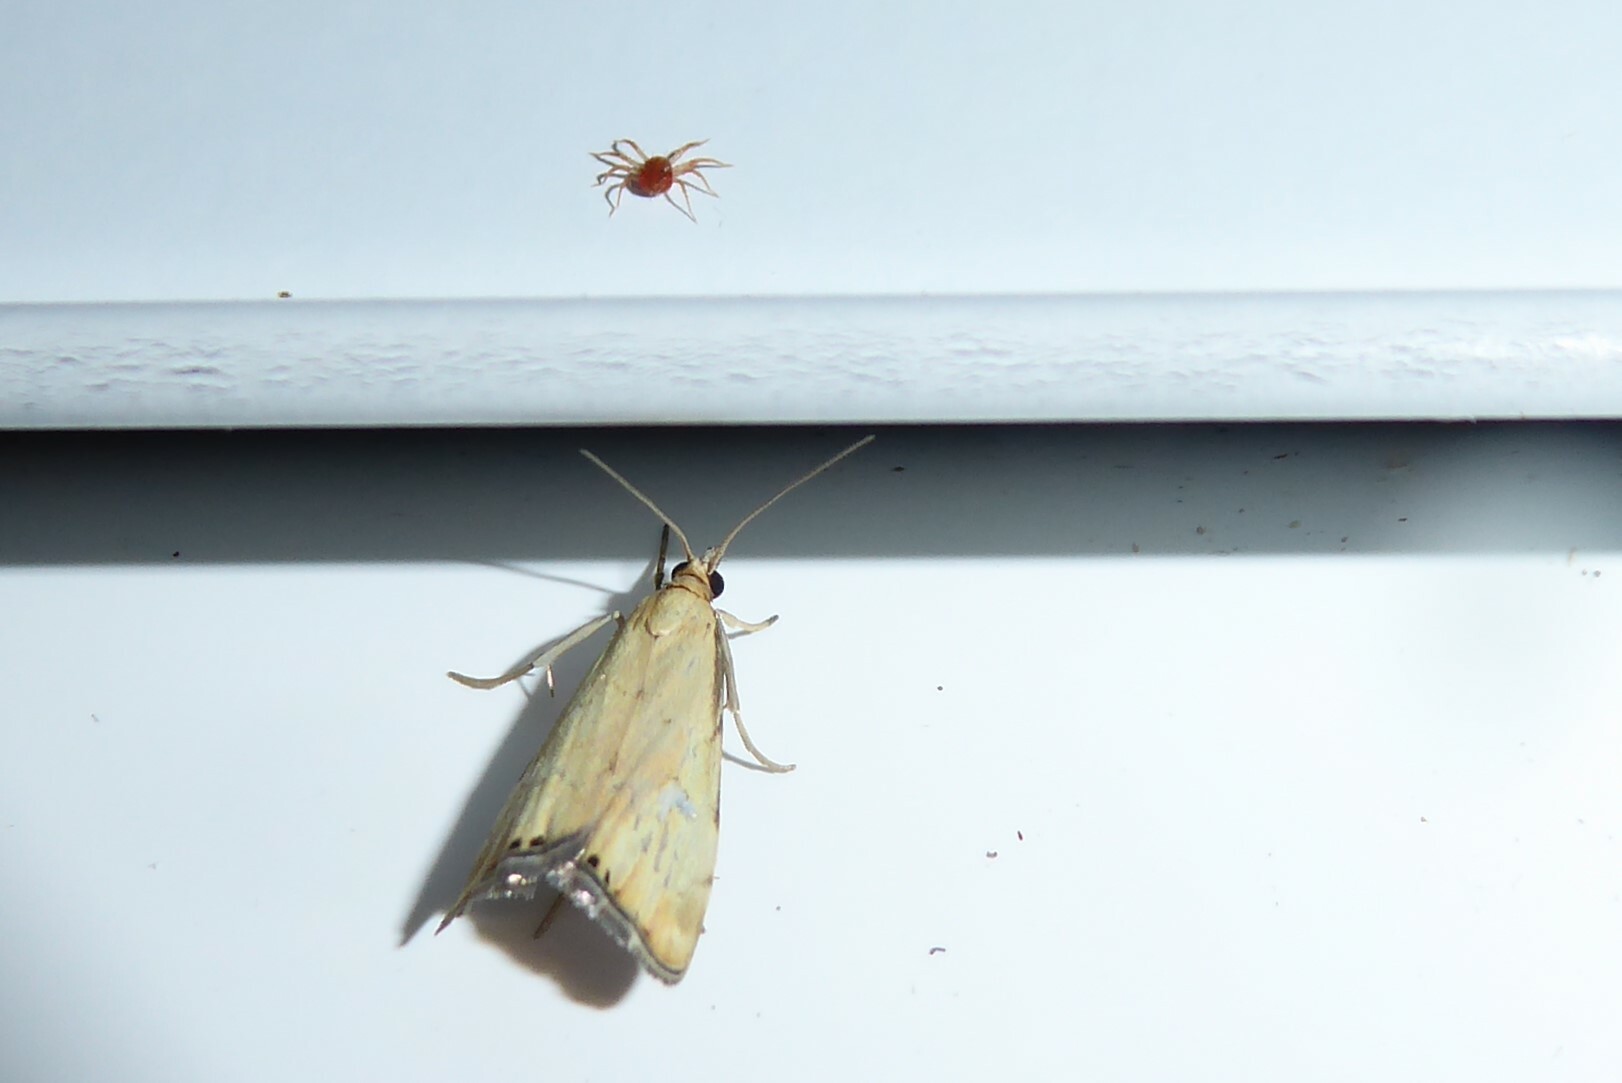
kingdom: Animalia
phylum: Arthropoda
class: Insecta
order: Lepidoptera
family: Crambidae
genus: Glaucocharis
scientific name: Glaucocharis lepidella
